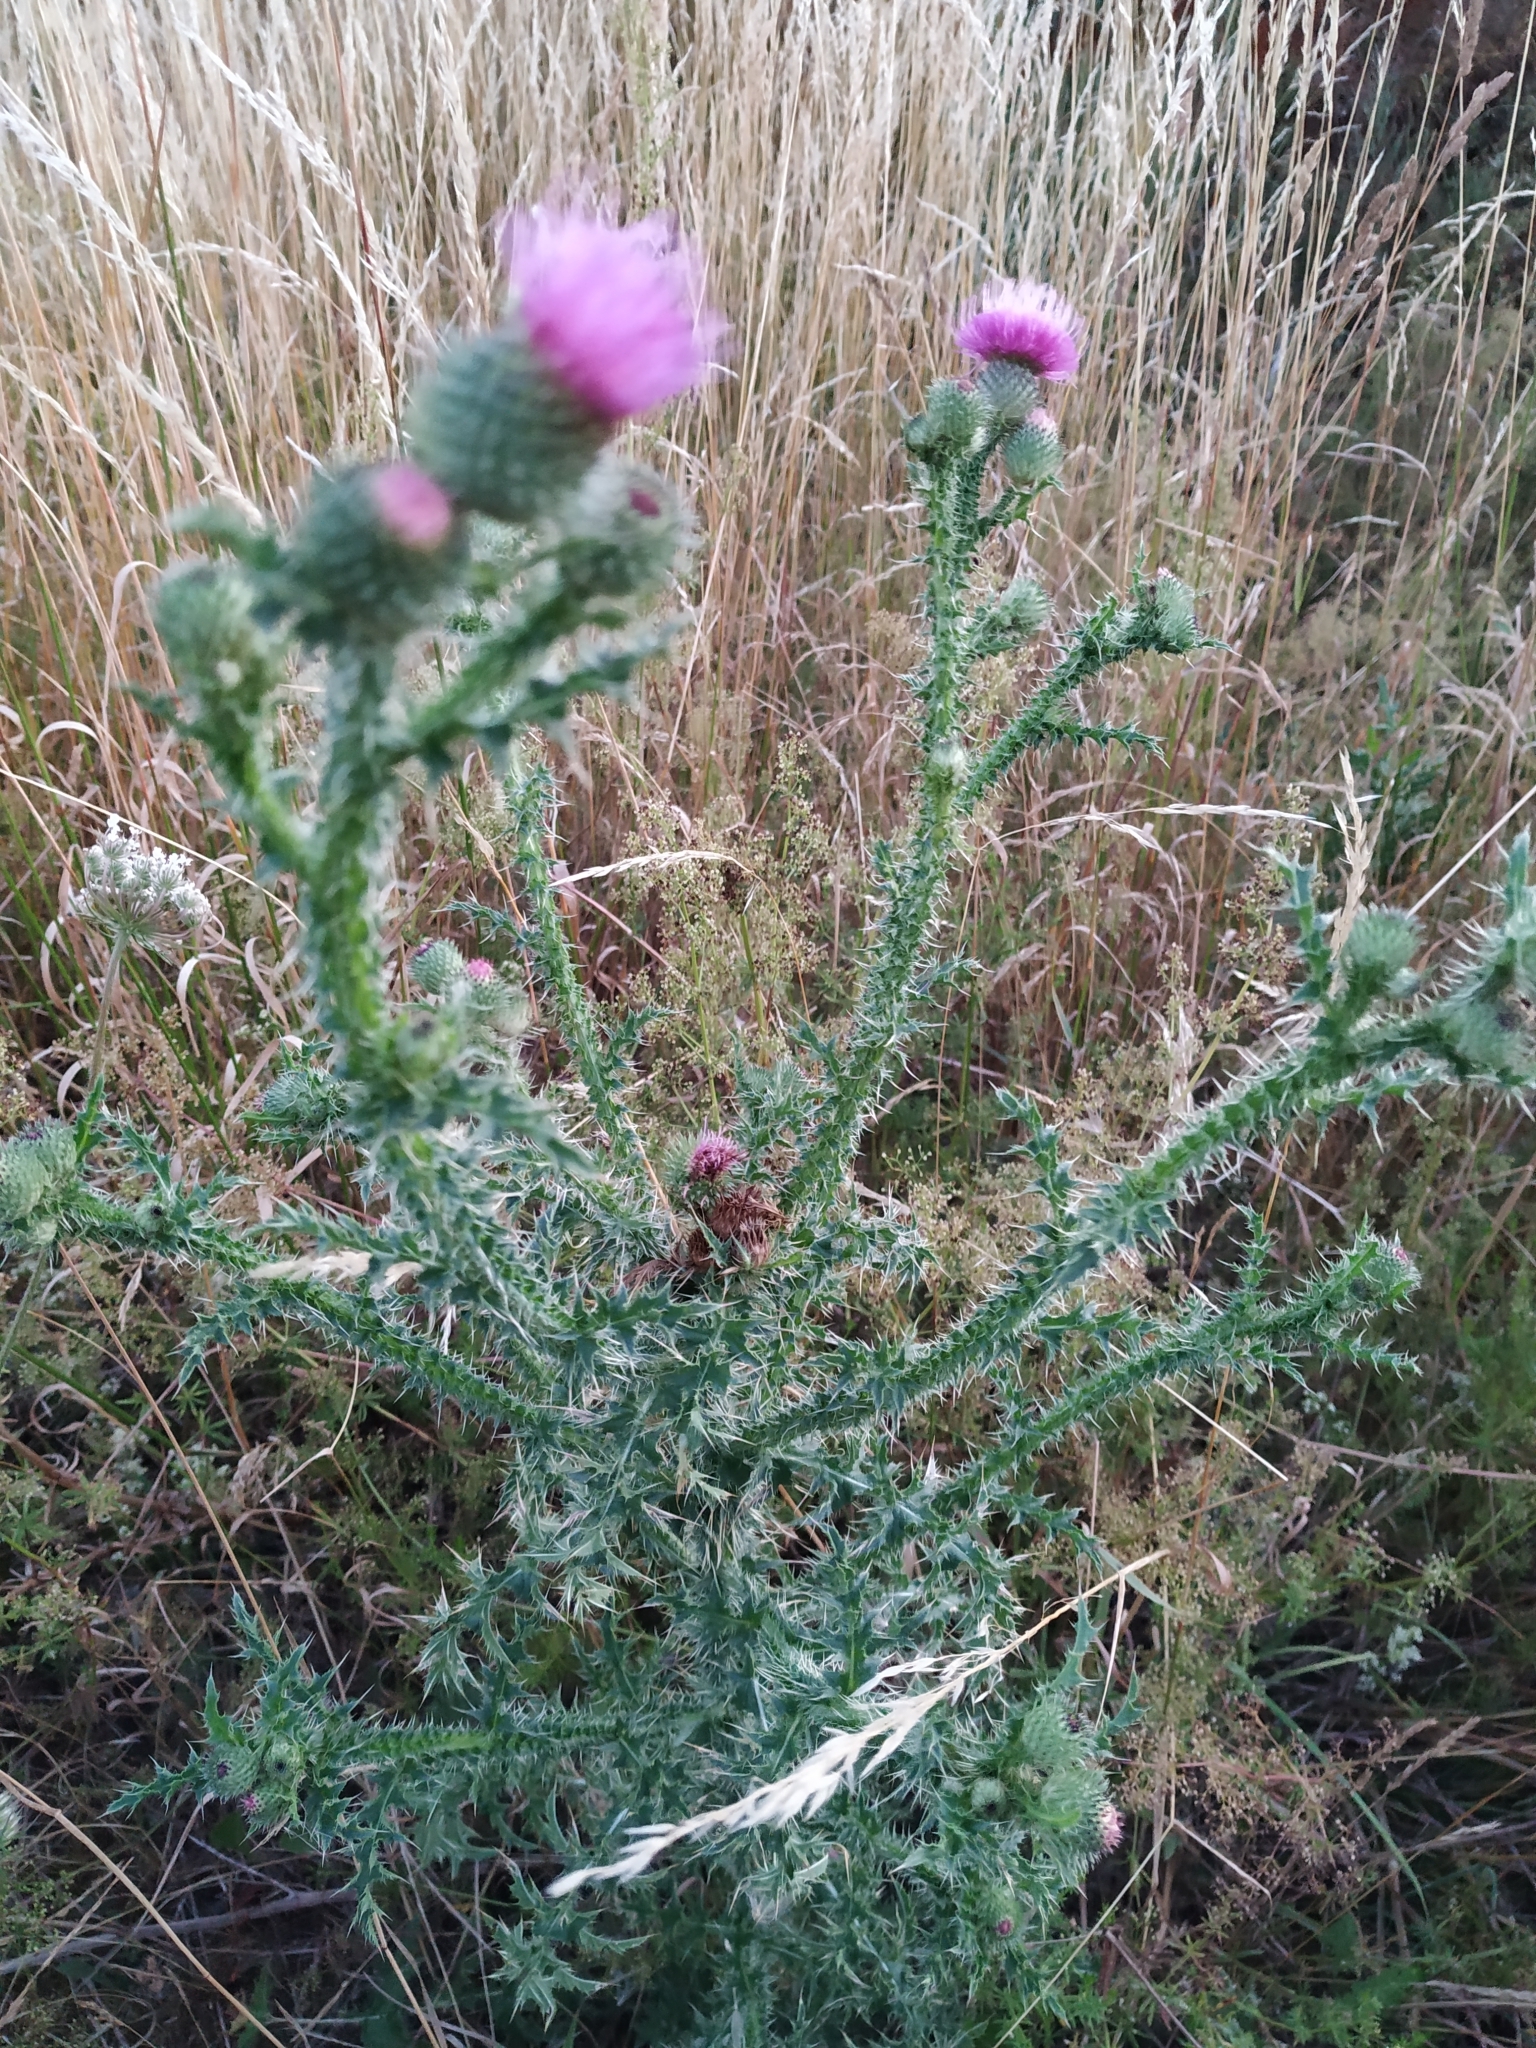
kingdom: Plantae
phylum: Tracheophyta
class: Magnoliopsida
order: Asterales
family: Asteraceae
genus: Carduus
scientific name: Carduus acanthoides
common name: Plumeless thistle
